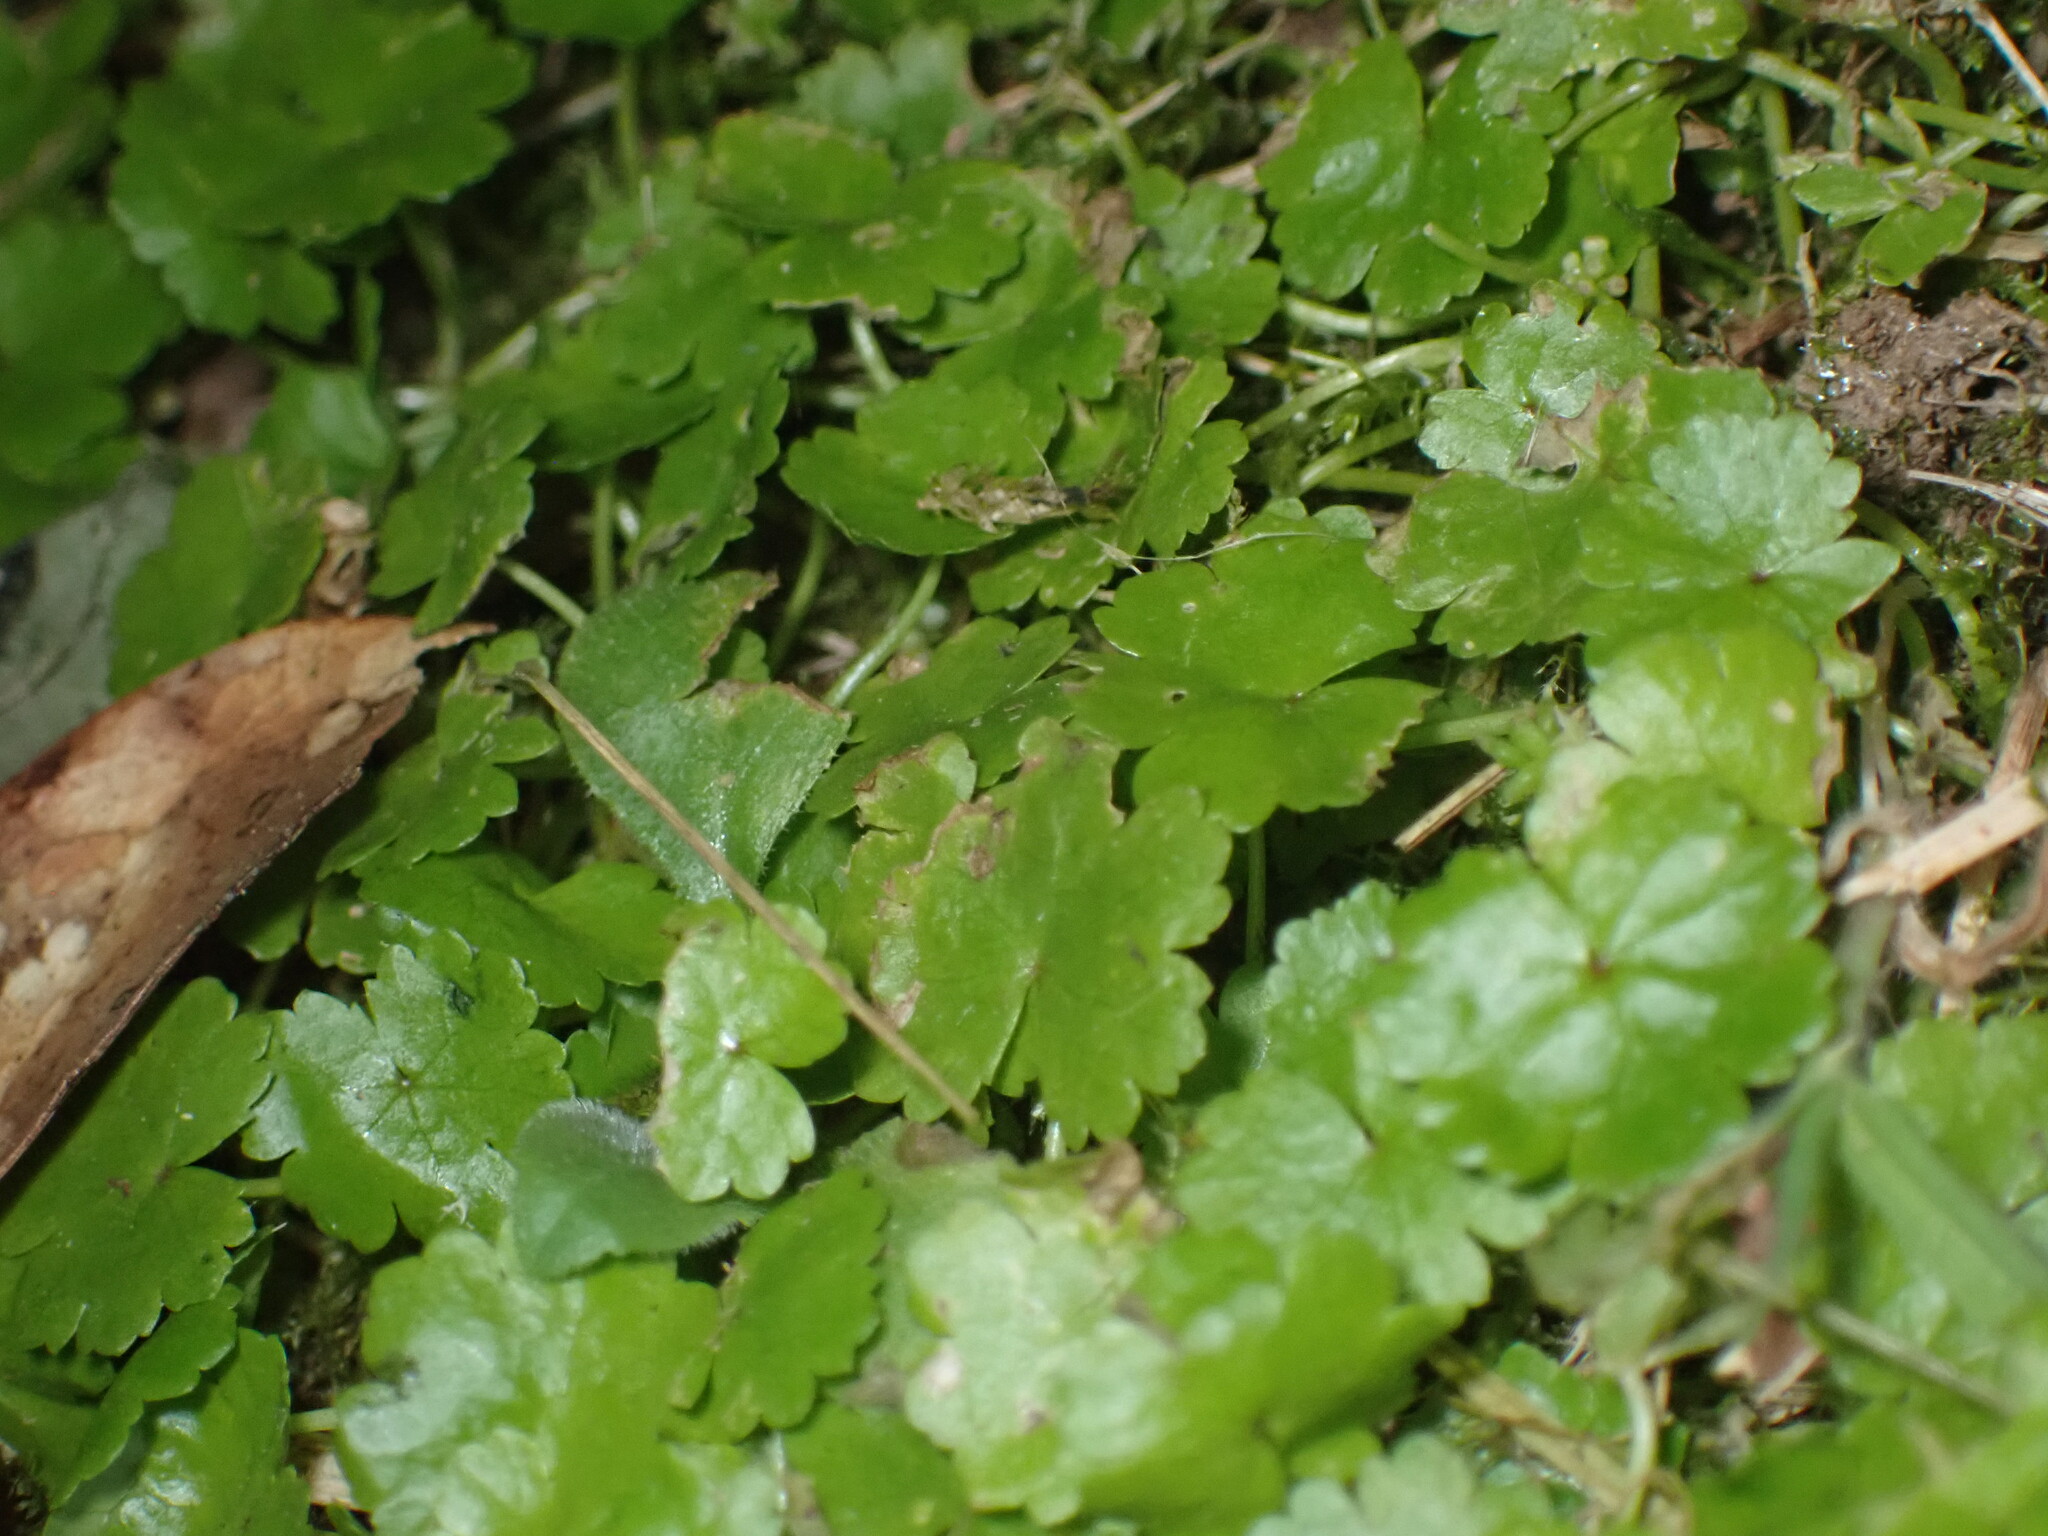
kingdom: Plantae
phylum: Tracheophyta
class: Magnoliopsida
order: Apiales
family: Araliaceae
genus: Hydrocotyle
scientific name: Hydrocotyle sibthorpioides
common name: Lawn marshpennywort
